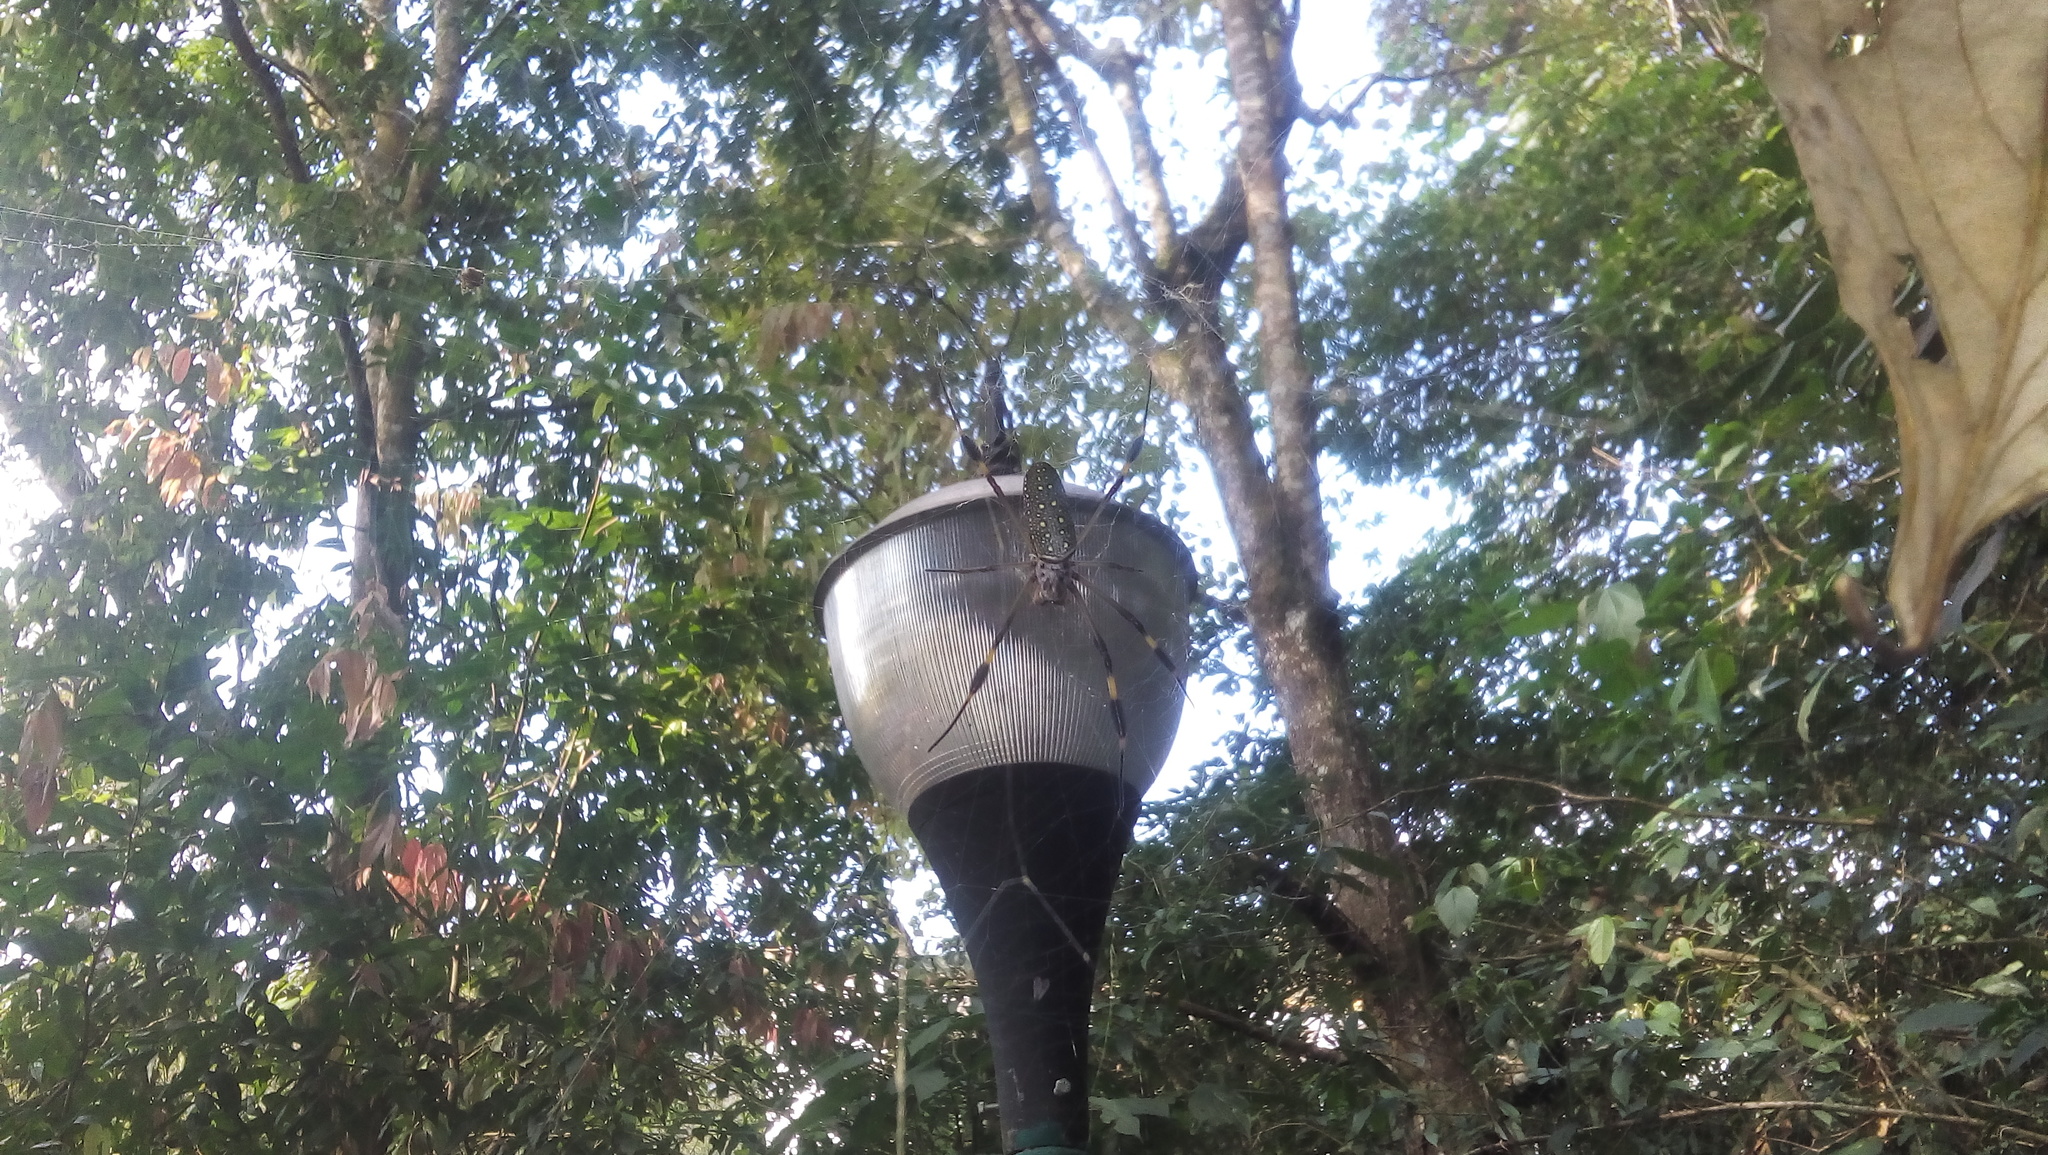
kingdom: Animalia
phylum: Arthropoda
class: Arachnida
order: Araneae
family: Araneidae
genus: Trichonephila
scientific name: Trichonephila clavipes
